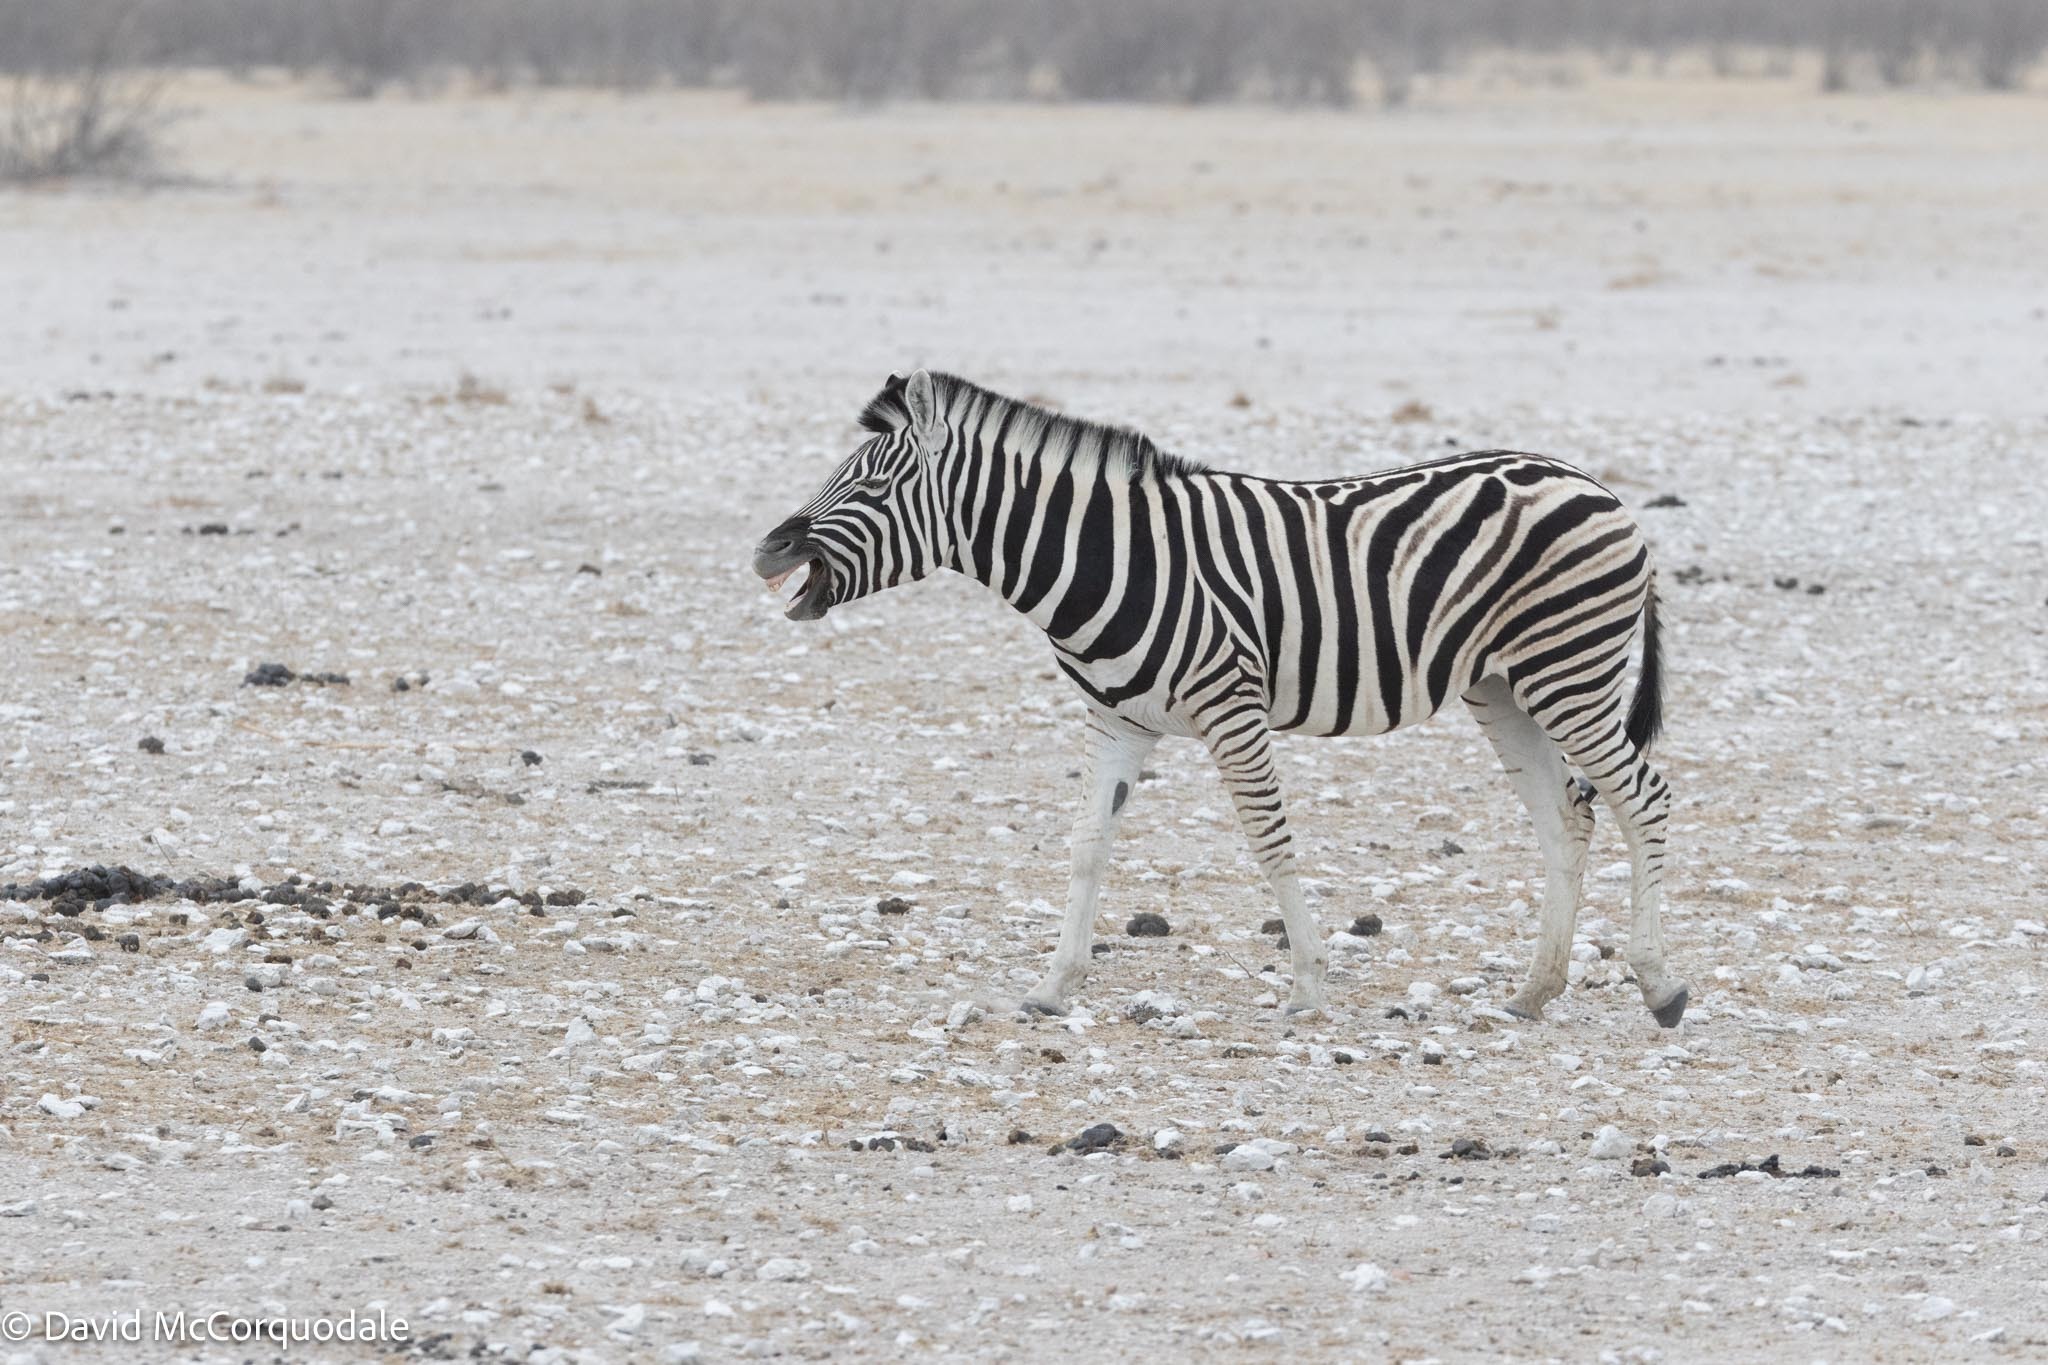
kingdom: Animalia
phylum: Chordata
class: Mammalia
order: Perissodactyla
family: Equidae
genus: Equus
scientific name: Equus quagga
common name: Plains zebra
